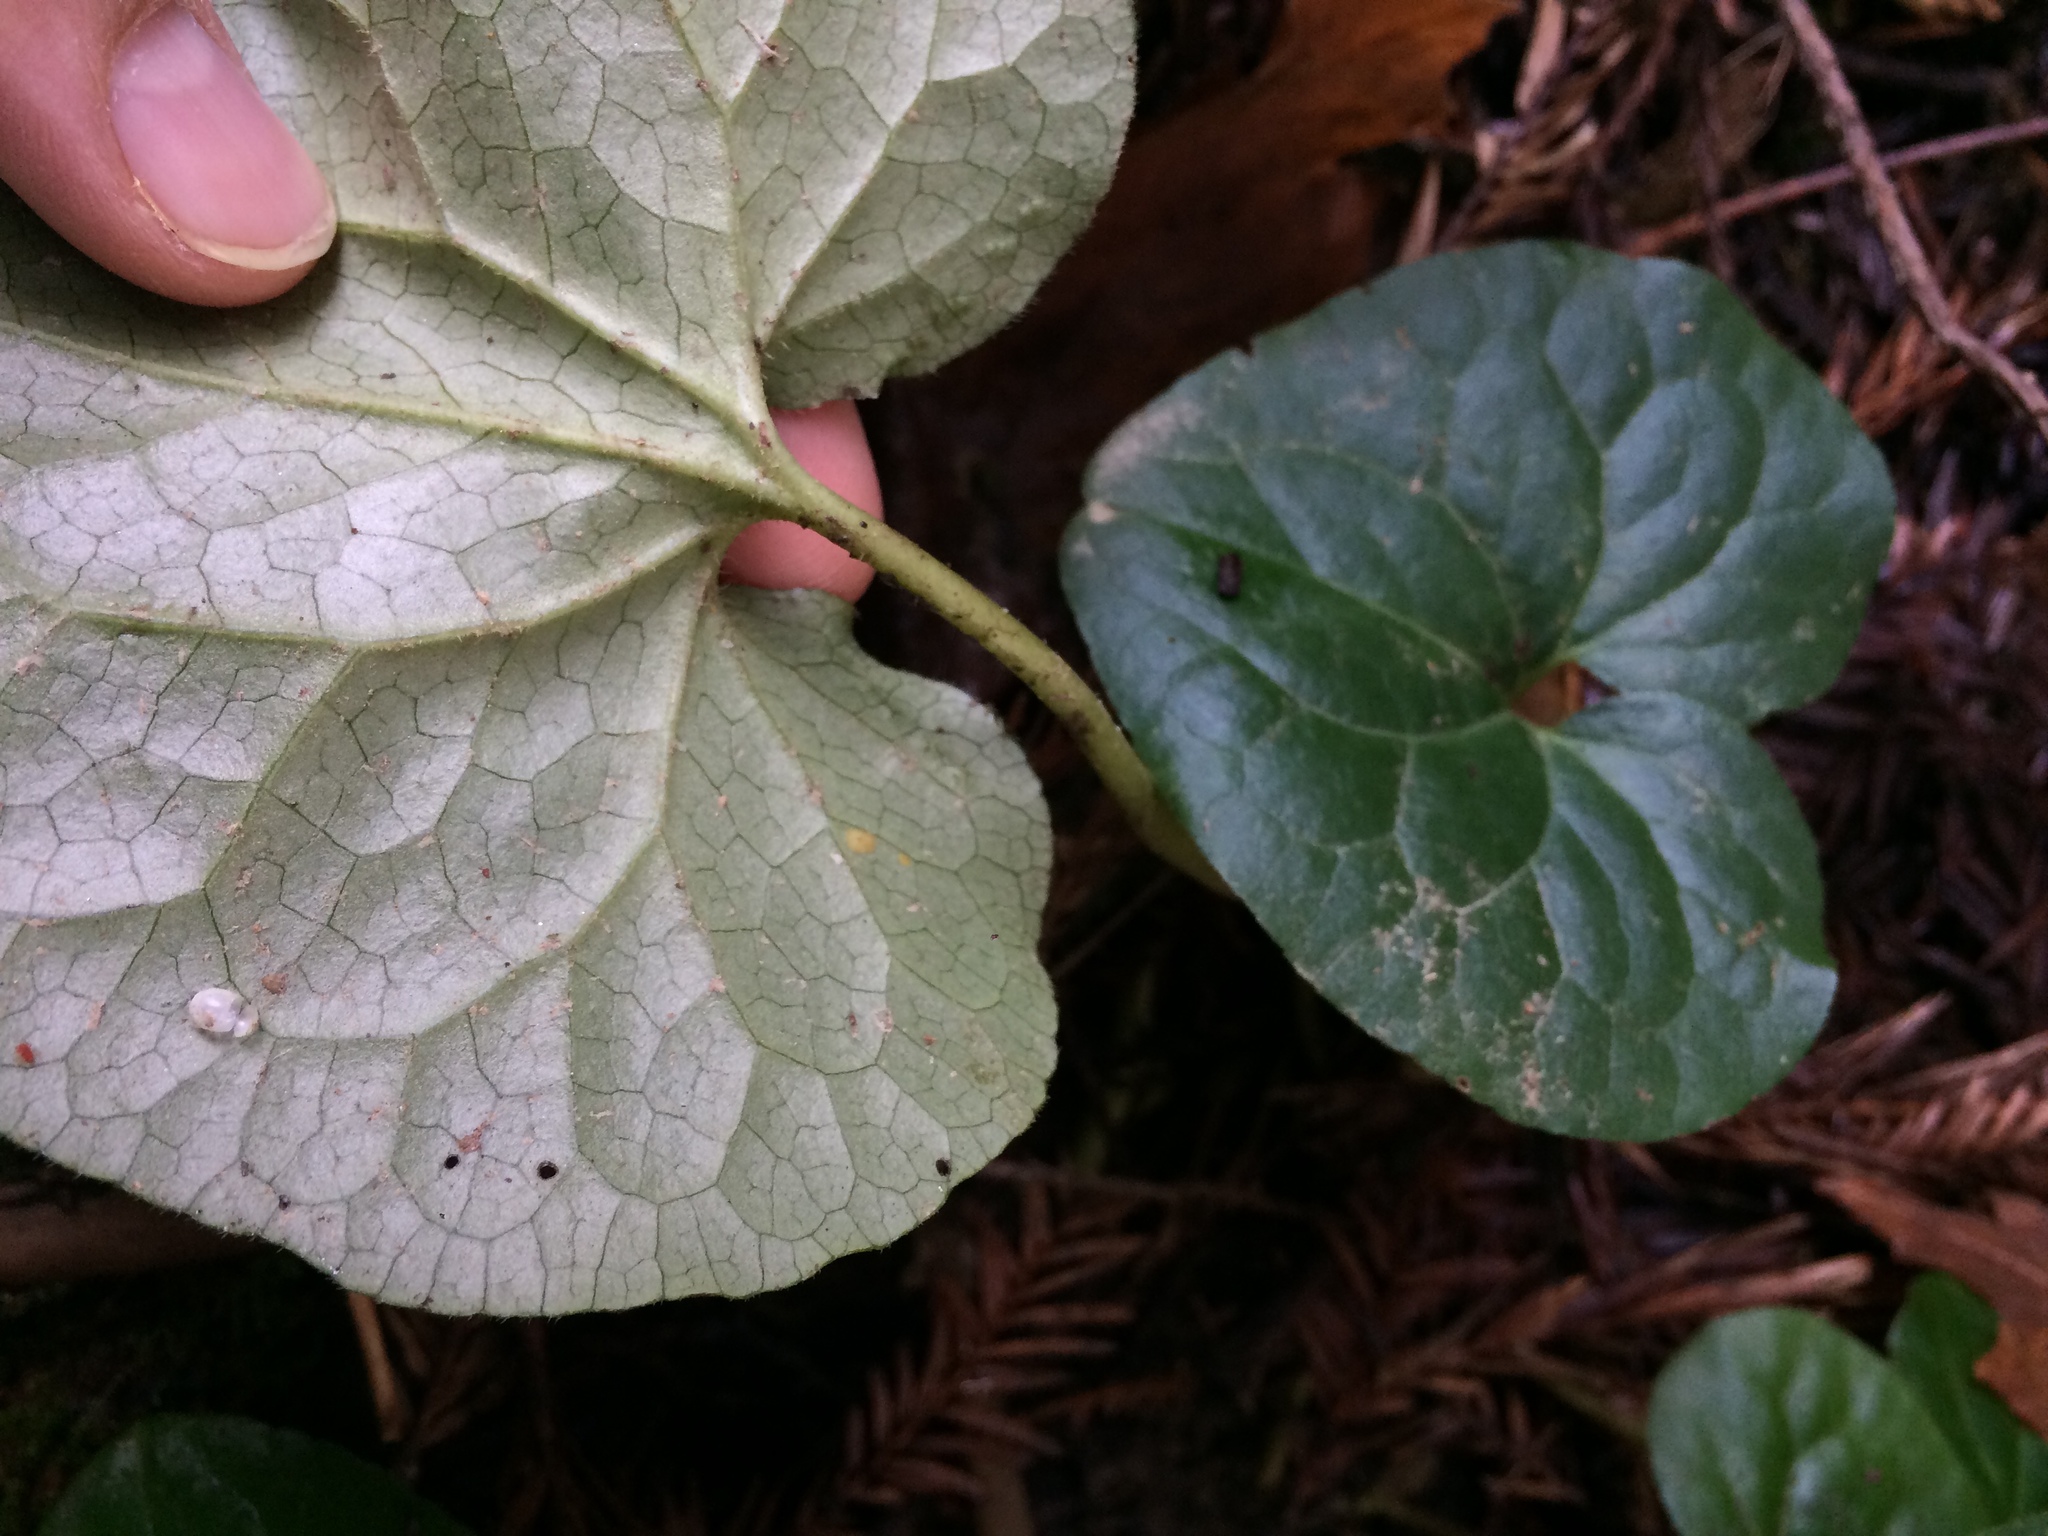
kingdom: Plantae
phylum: Tracheophyta
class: Magnoliopsida
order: Piperales
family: Aristolochiaceae
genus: Asarum
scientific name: Asarum caudatum
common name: Wild ginger
